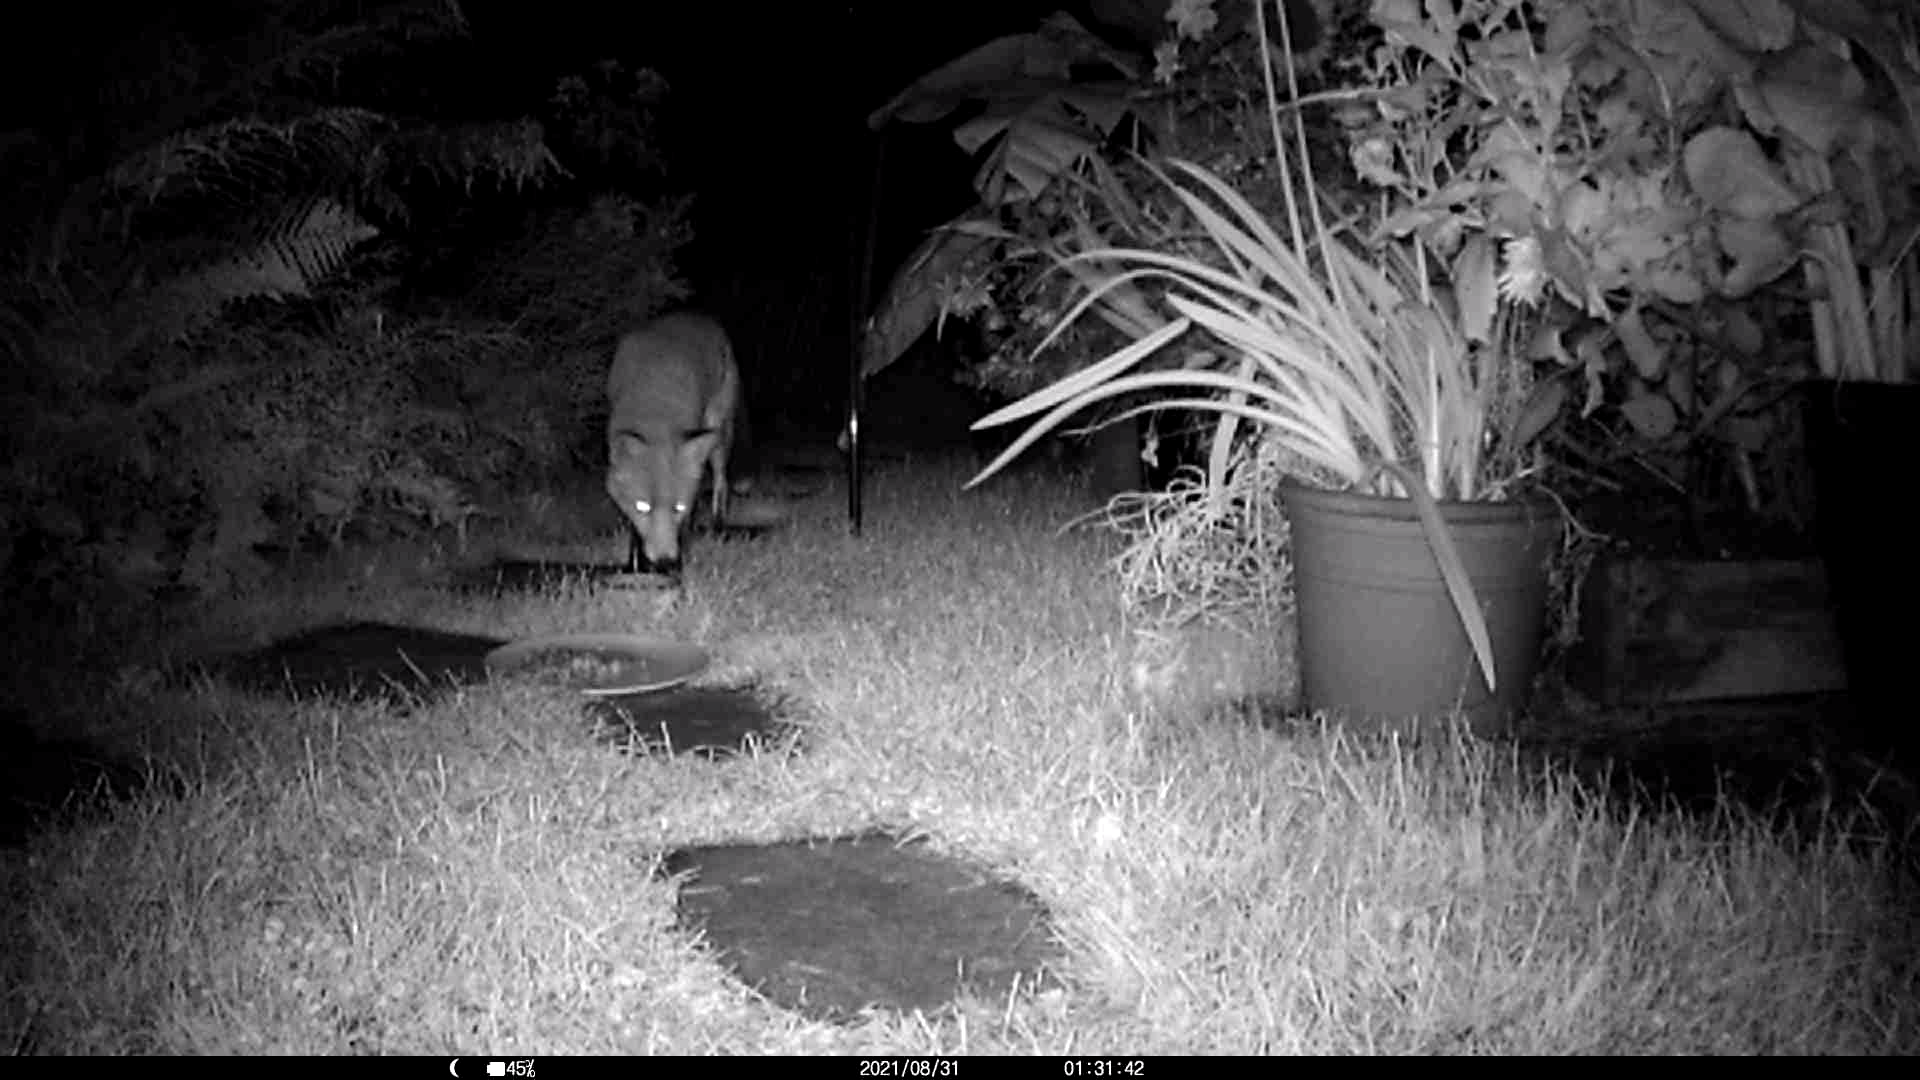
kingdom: Animalia
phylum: Chordata
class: Mammalia
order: Carnivora
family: Canidae
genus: Vulpes
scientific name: Vulpes vulpes
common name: Red fox
